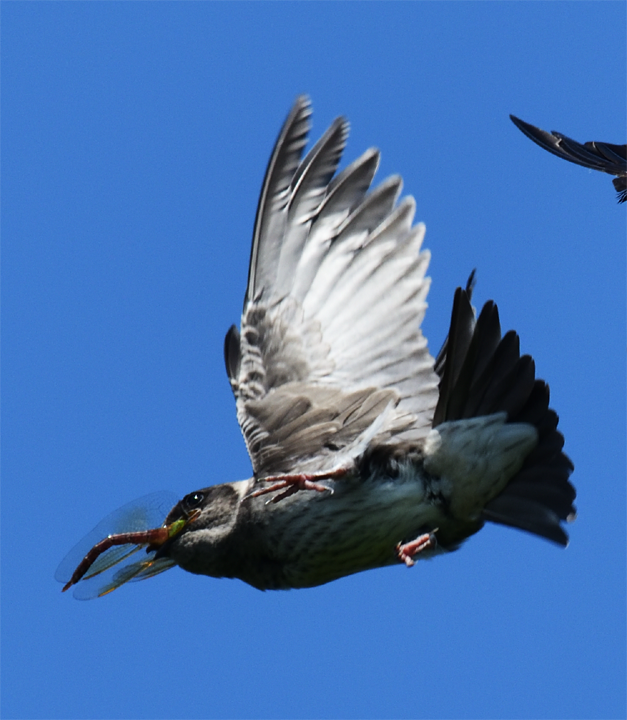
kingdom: Animalia
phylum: Chordata
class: Aves
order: Passeriformes
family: Hirundinidae
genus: Progne
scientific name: Progne subis
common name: Purple martin
